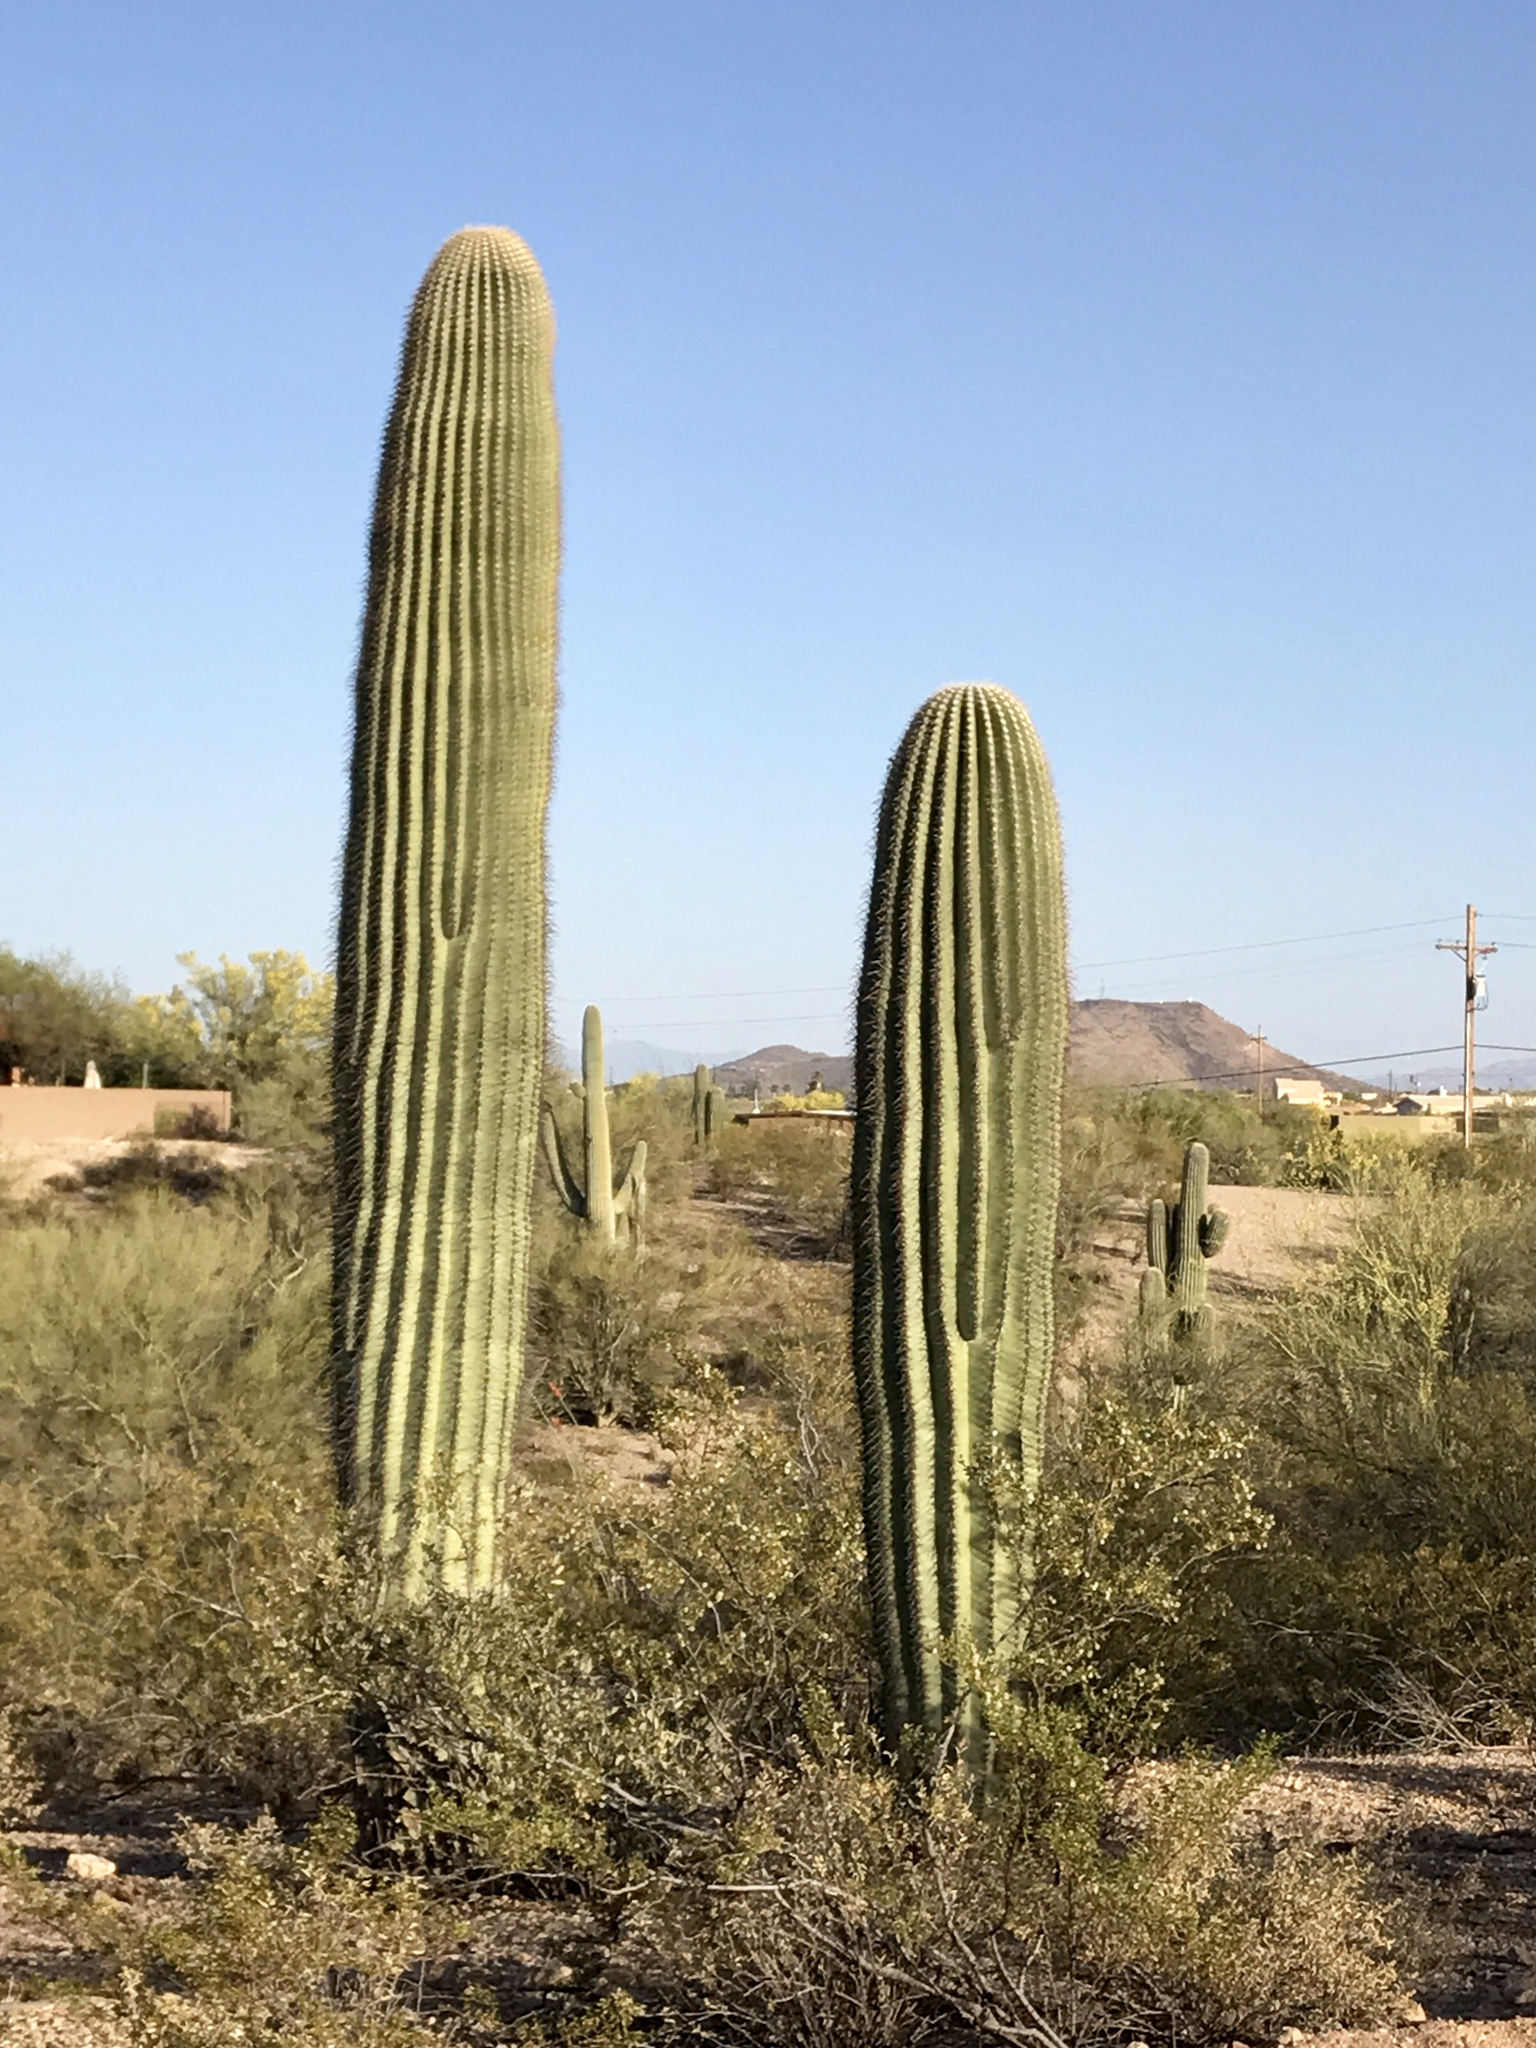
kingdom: Plantae
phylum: Tracheophyta
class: Magnoliopsida
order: Caryophyllales
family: Cactaceae
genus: Carnegiea
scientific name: Carnegiea gigantea
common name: Saguaro
